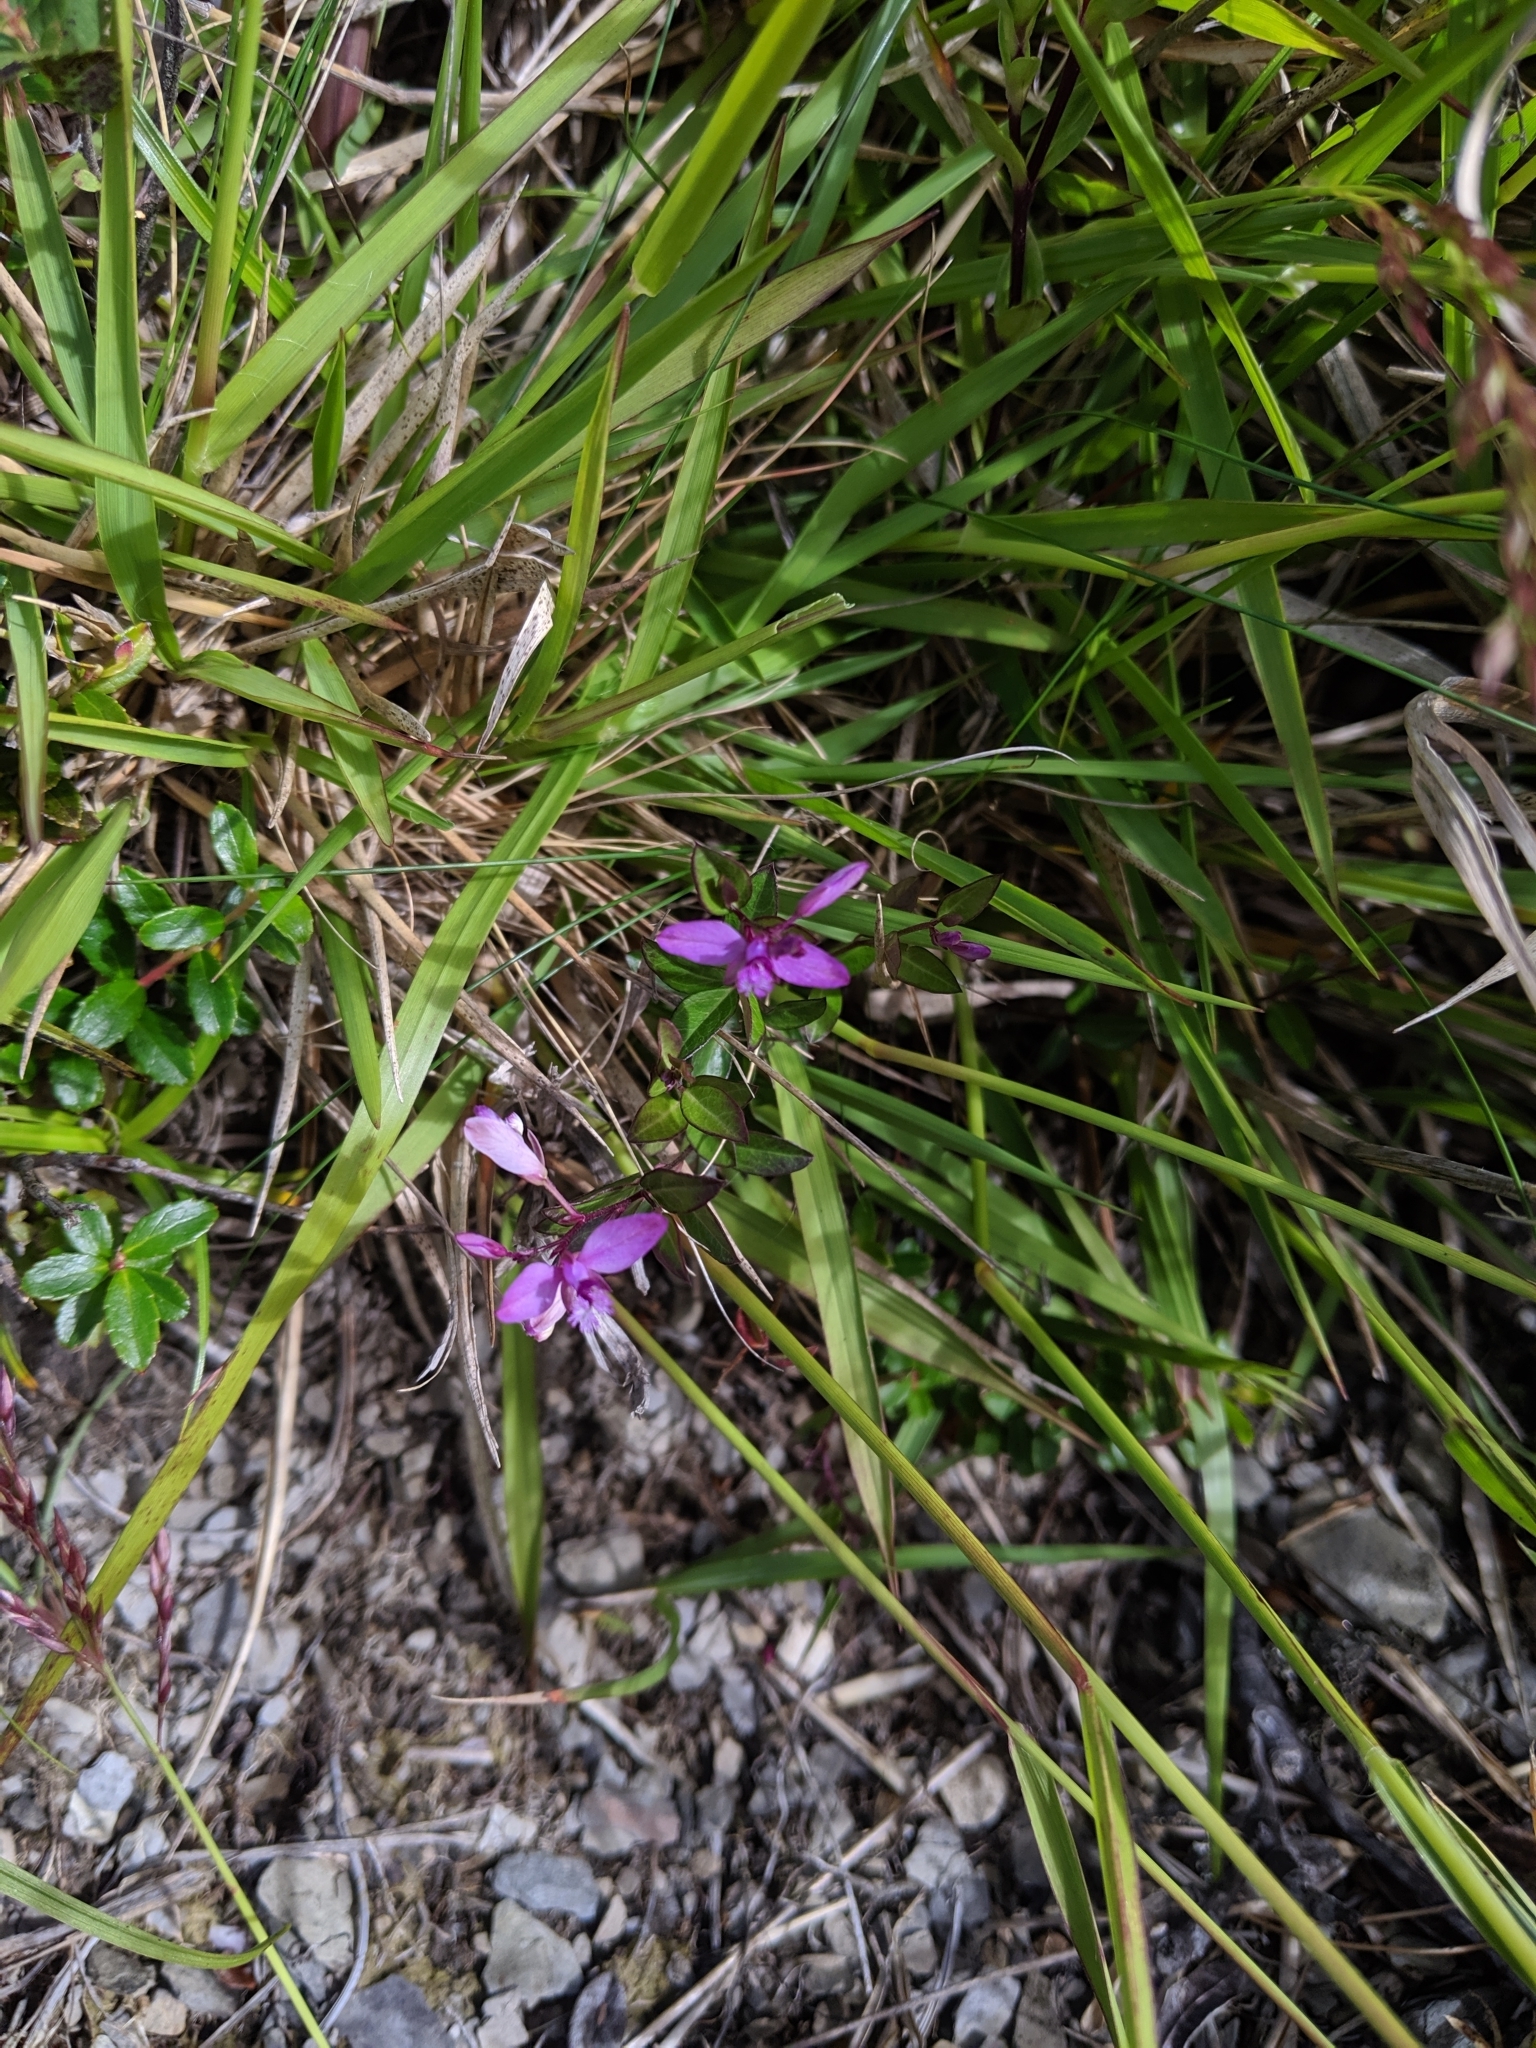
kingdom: Plantae
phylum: Tracheophyta
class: Magnoliopsida
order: Fabales
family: Polygalaceae
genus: Polygala
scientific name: Polygala japonica
